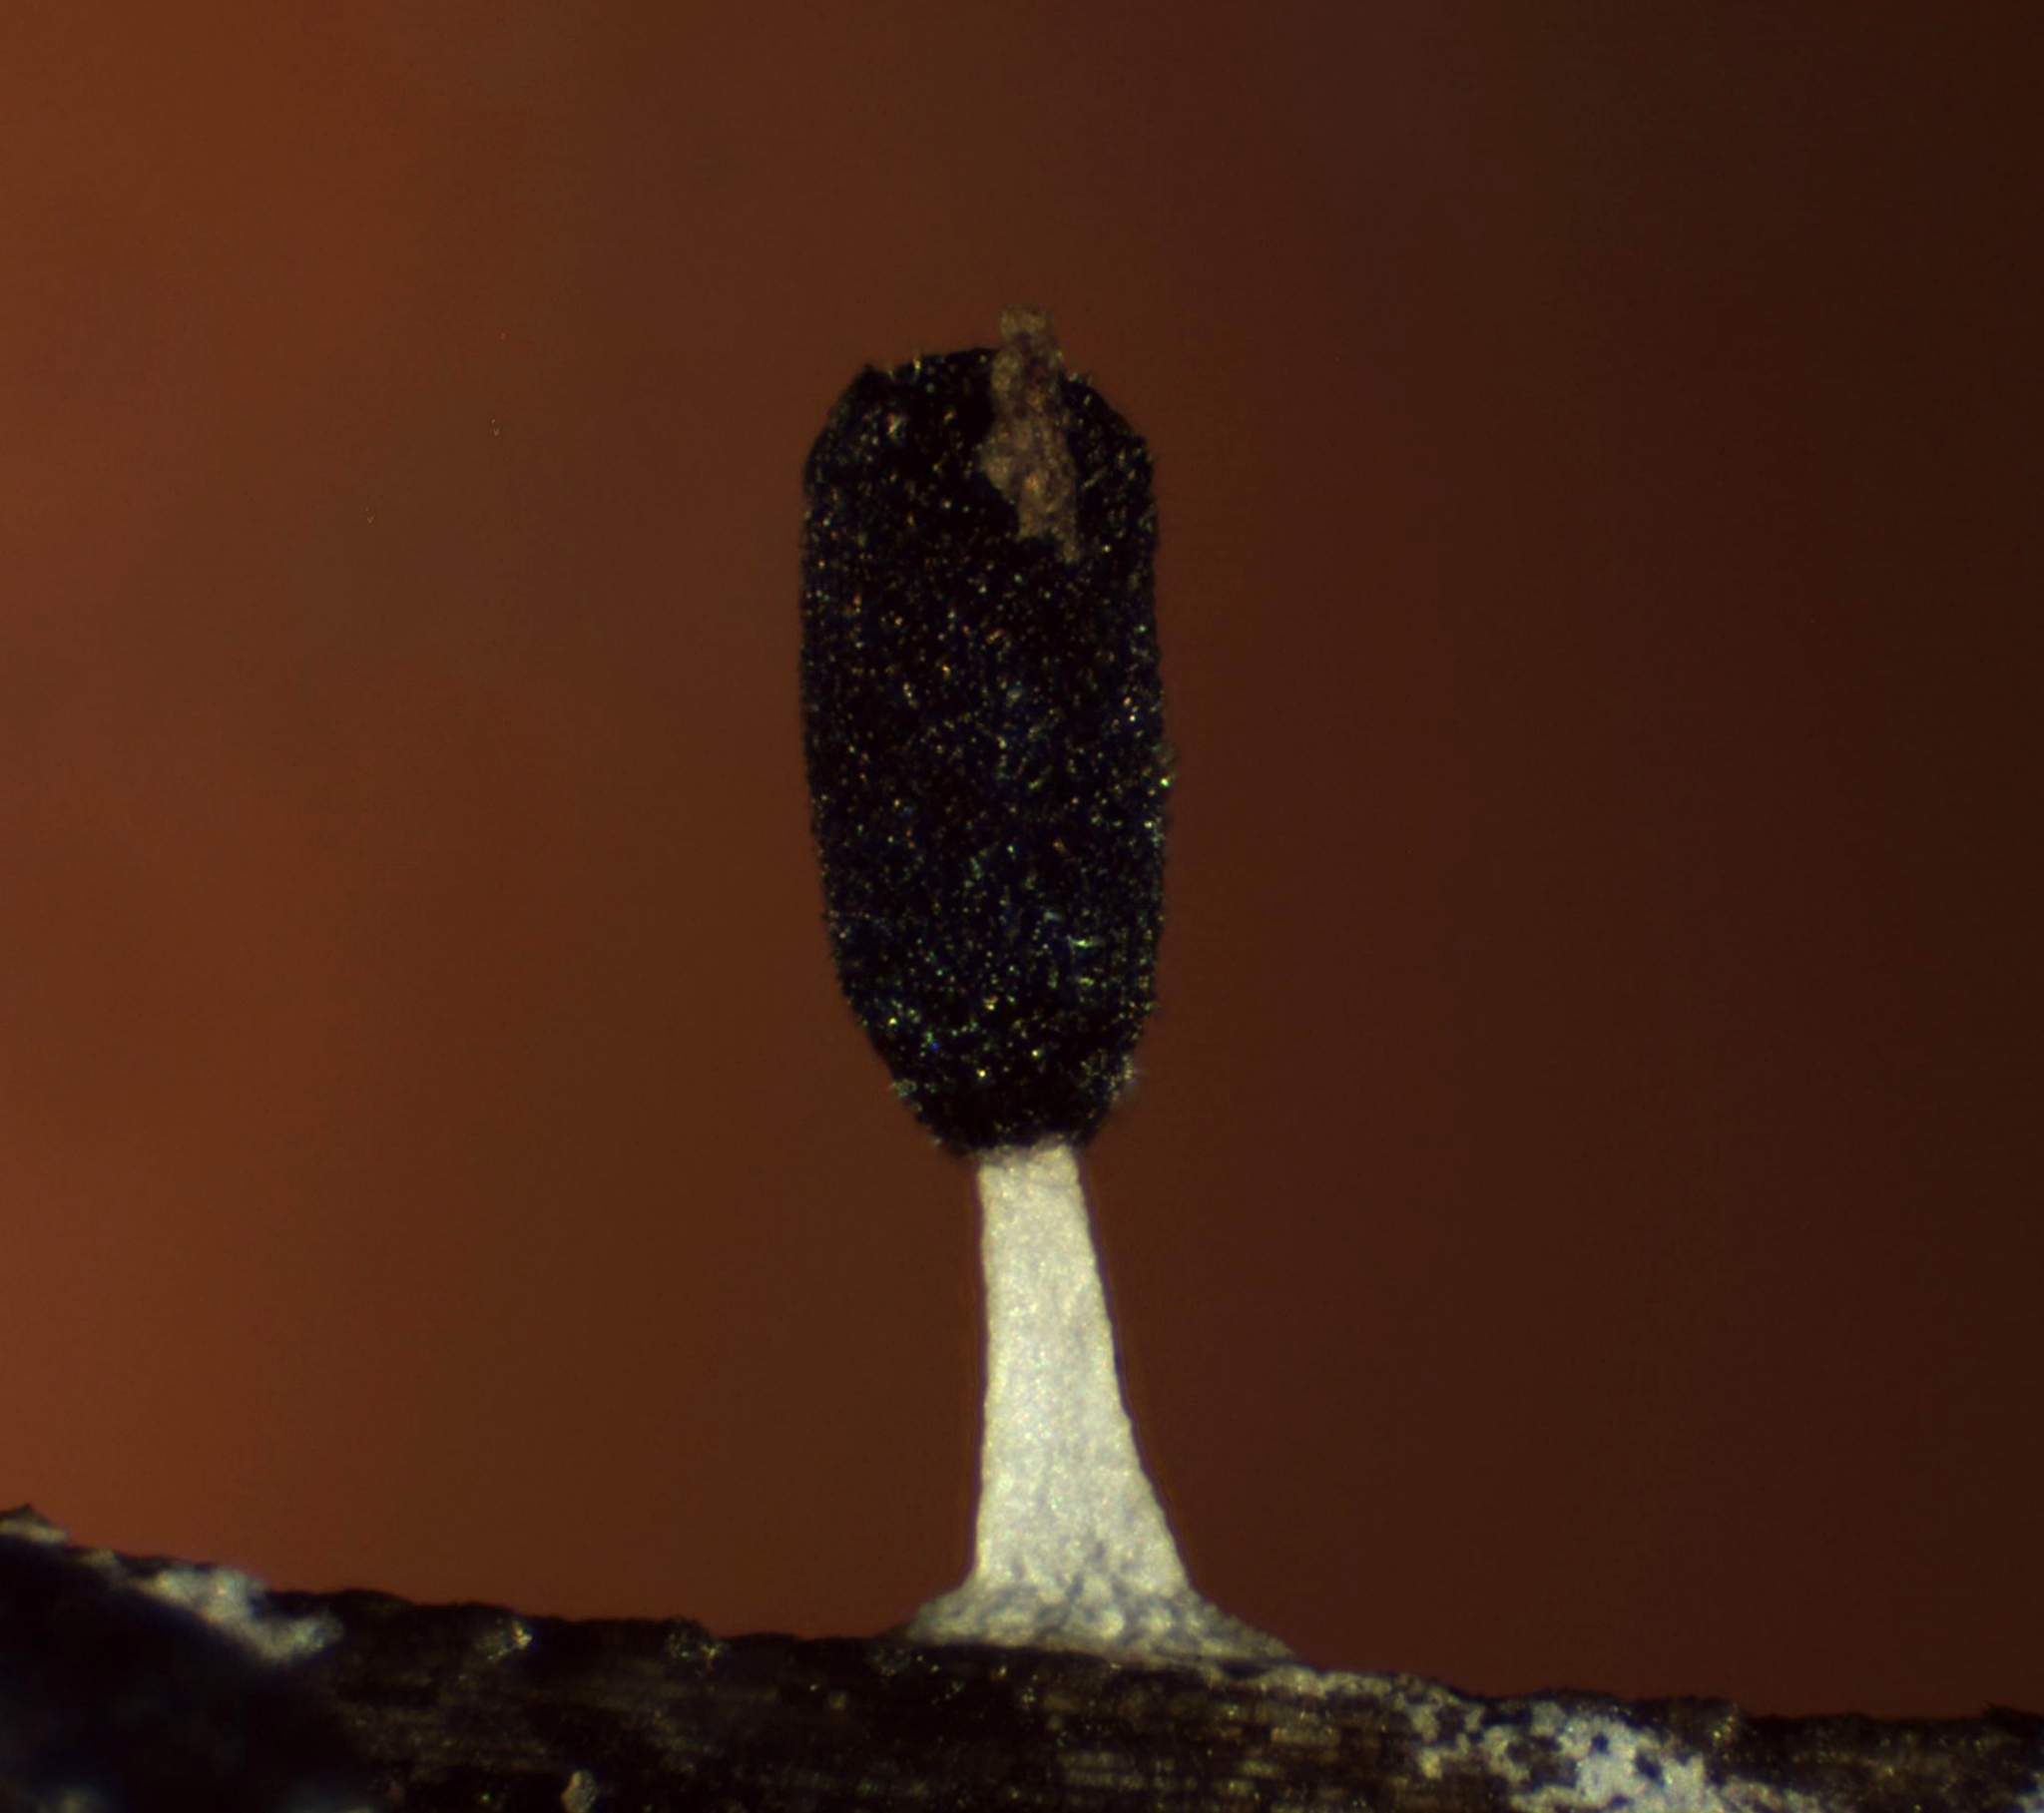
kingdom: Protozoa
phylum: Mycetozoa
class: Myxomycetes
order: Physarales
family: Didymiaceae
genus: Diachea
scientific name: Diachea leucopodia
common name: White-footed slime
